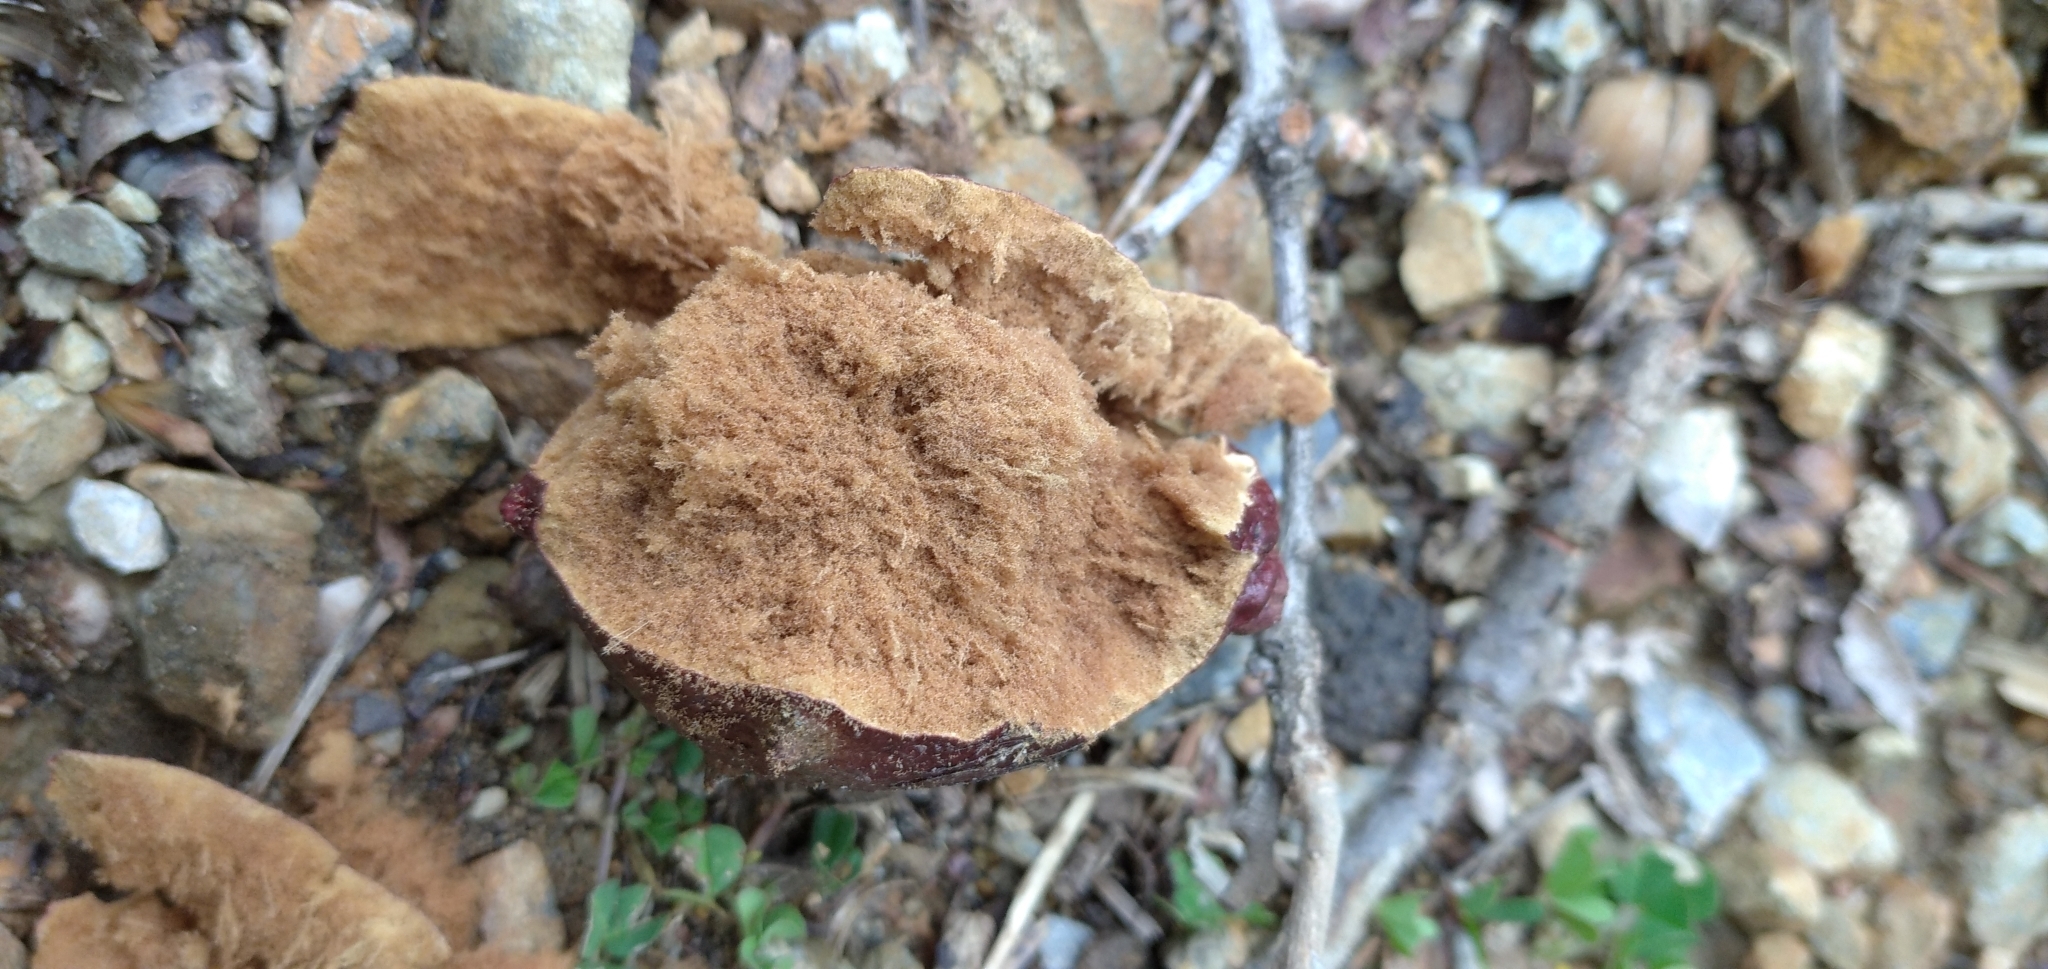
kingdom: Animalia
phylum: Arthropoda
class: Insecta
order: Hymenoptera
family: Cynipidae
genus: Andricus
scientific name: Andricus insanus
